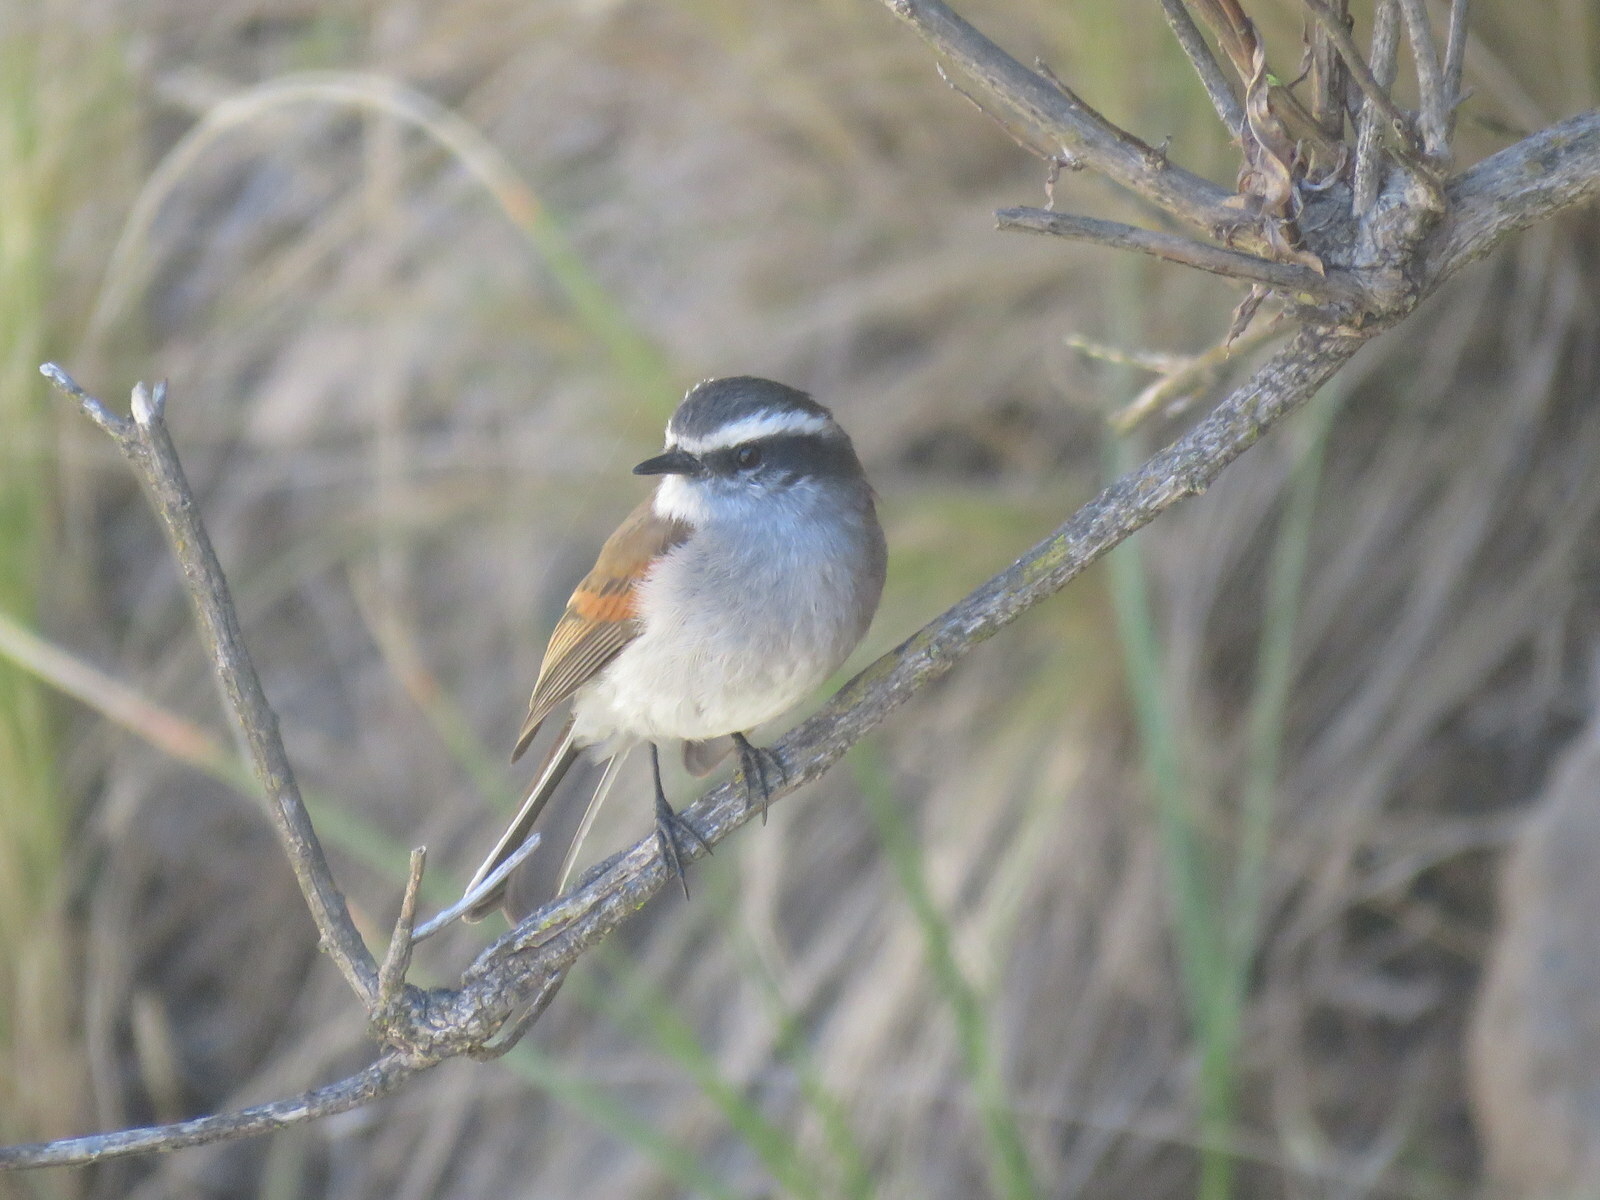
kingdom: Animalia
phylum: Chordata
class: Aves
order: Passeriformes
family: Tyrannidae
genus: Ochthoeca
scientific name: Ochthoeca leucophrys
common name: White-browed chat-tyrant
